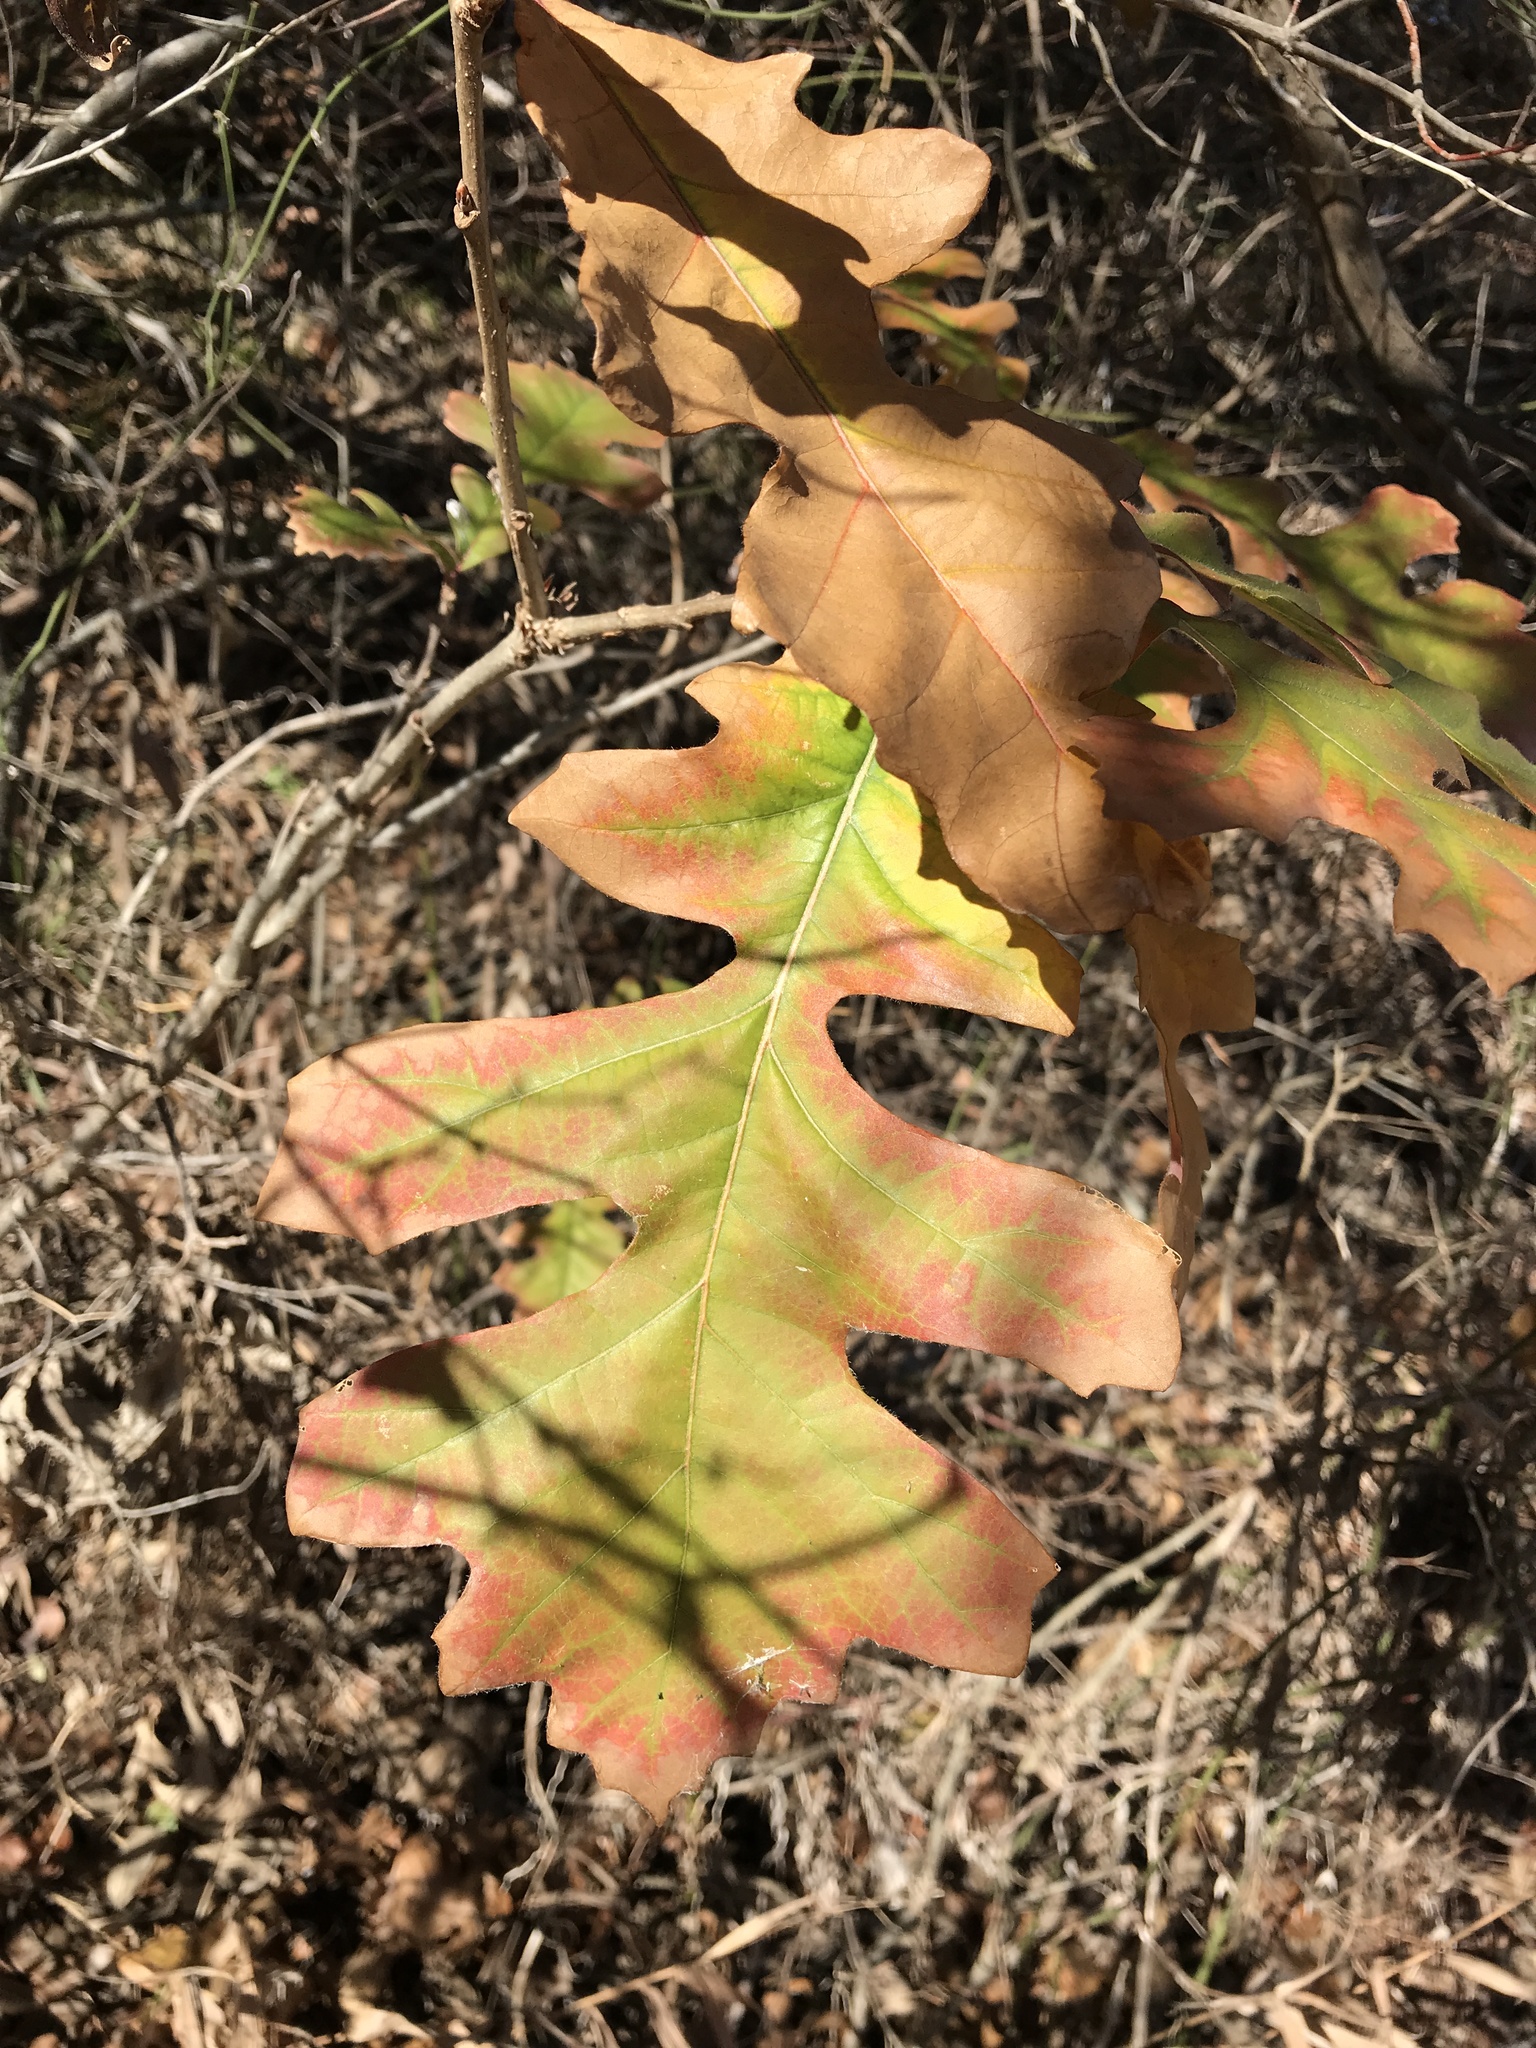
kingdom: Plantae
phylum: Tracheophyta
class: Magnoliopsida
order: Fagales
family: Fagaceae
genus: Quercus
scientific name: Quercus macrocarpa
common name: Bur oak
